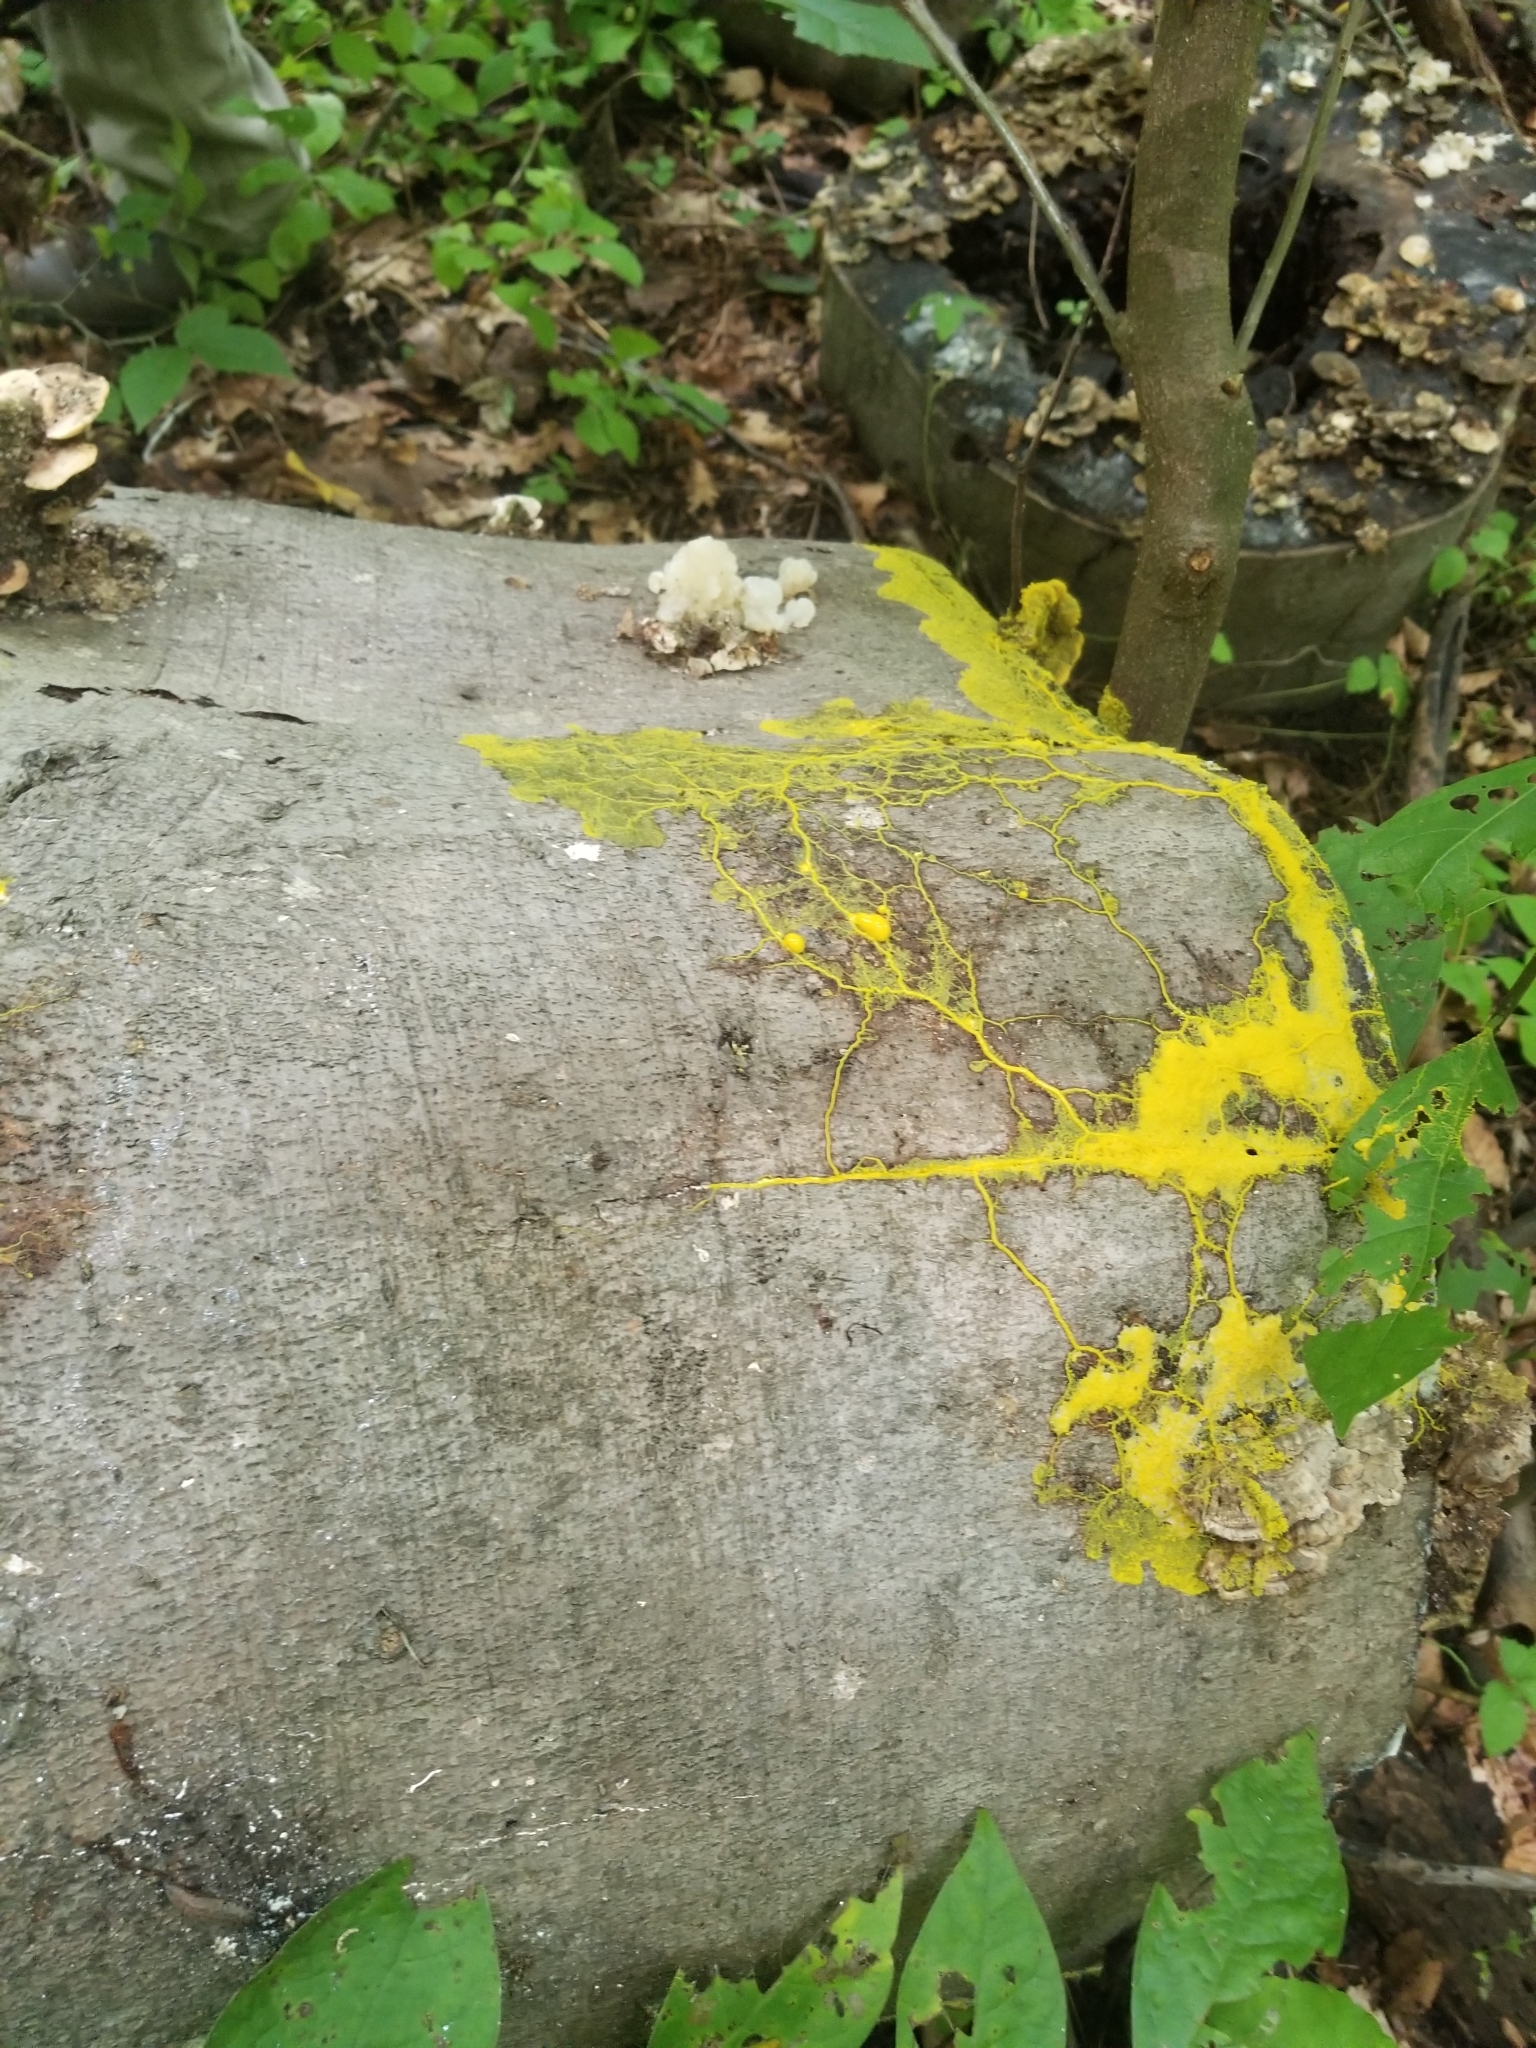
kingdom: Protozoa
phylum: Mycetozoa
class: Myxomycetes
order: Physarales
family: Physaraceae
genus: Physarum
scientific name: Physarum polycephalum
